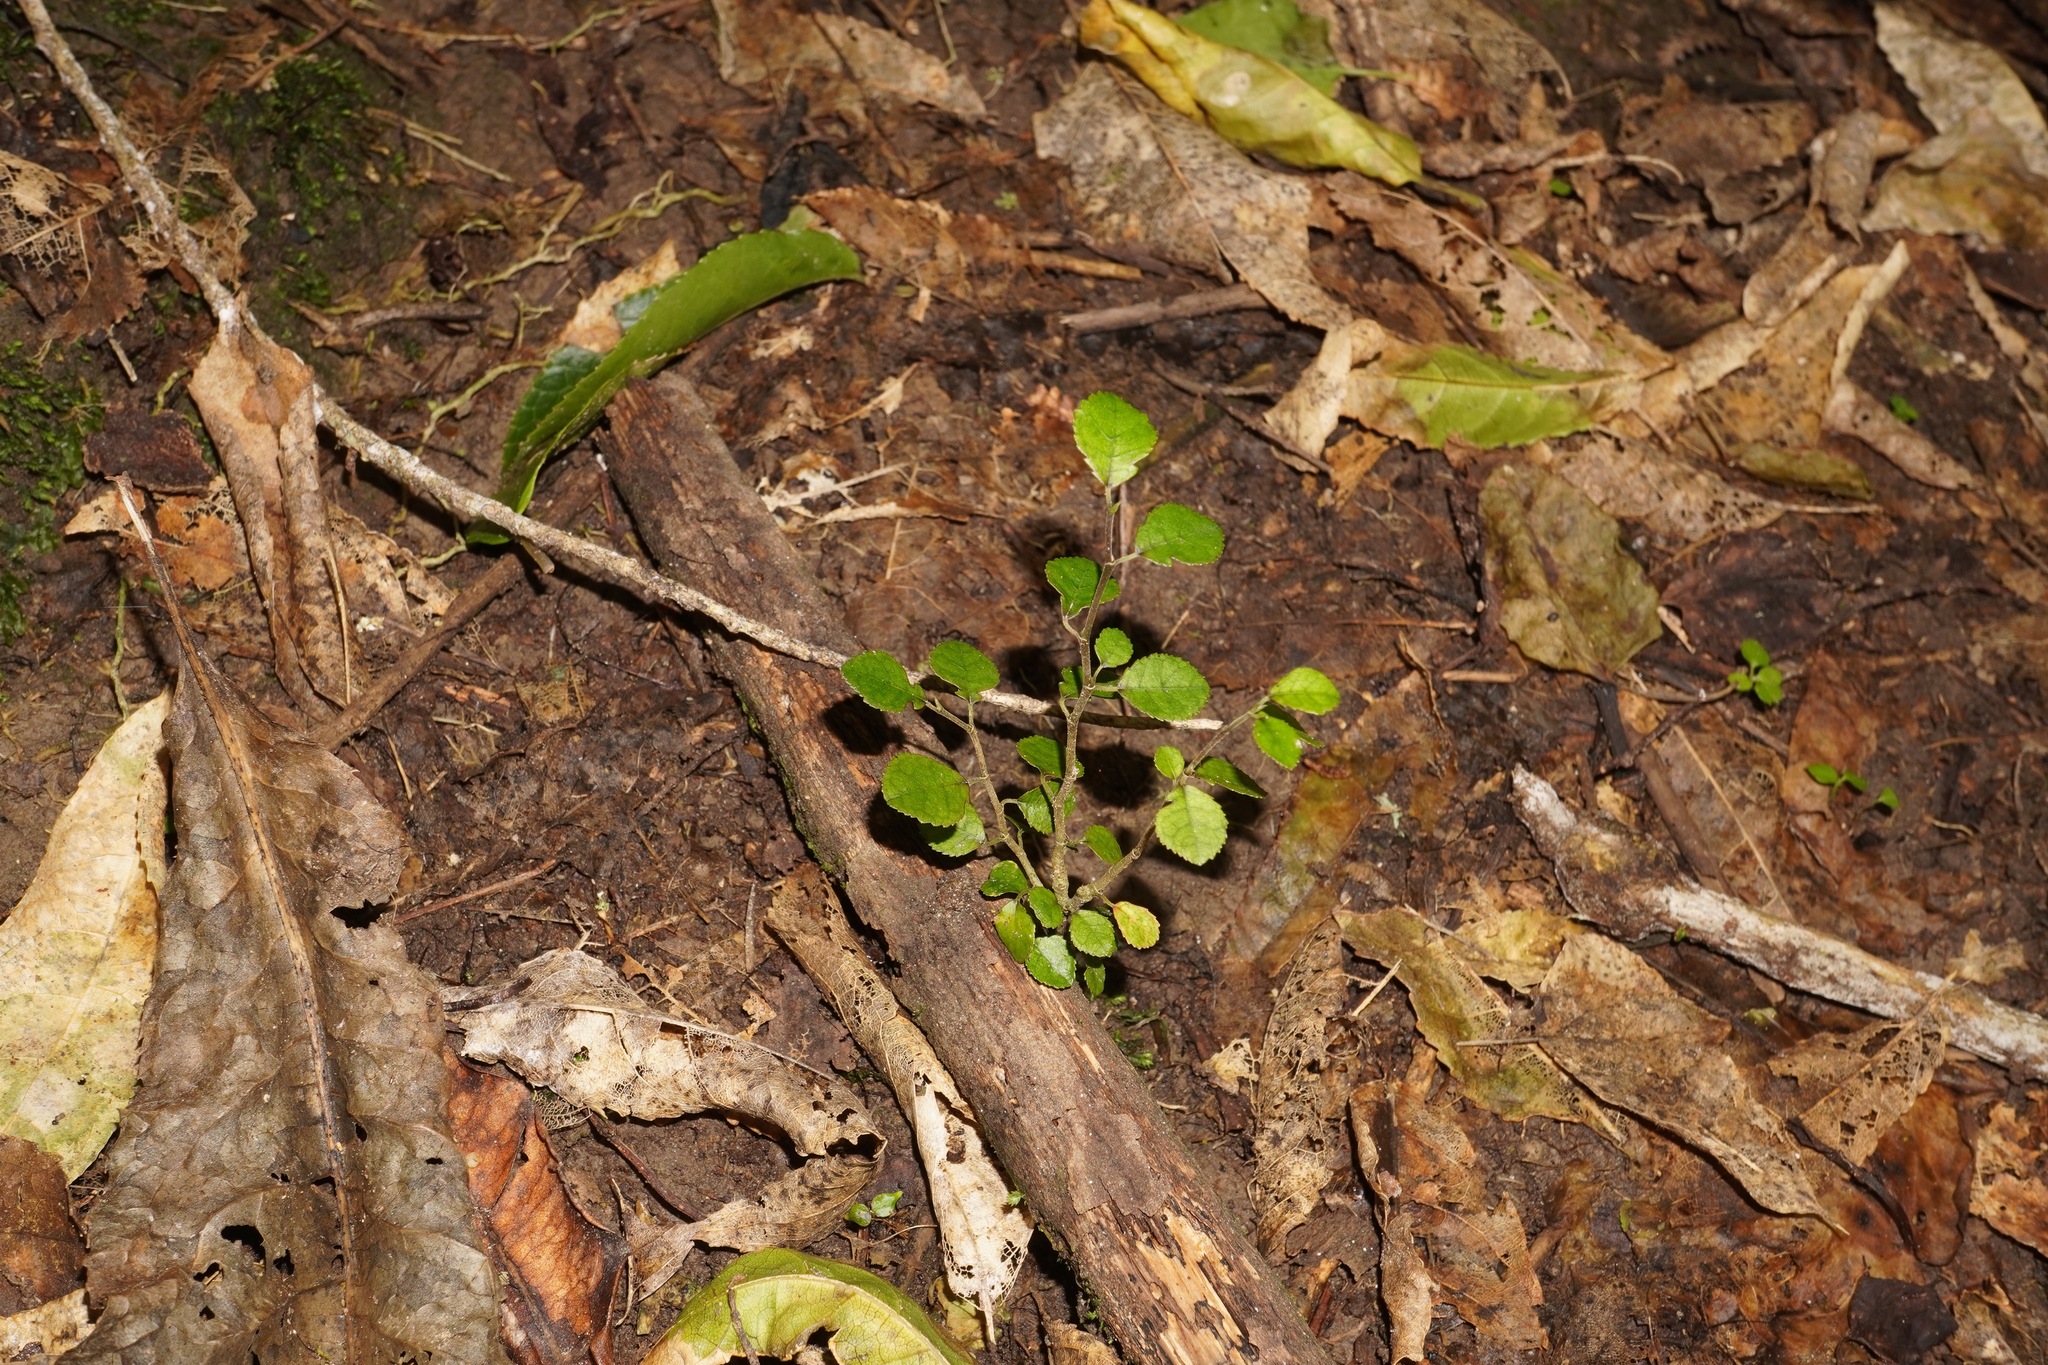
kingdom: Plantae
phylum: Tracheophyta
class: Magnoliopsida
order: Rosales
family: Moraceae
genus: Paratrophis
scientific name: Paratrophis microphylla
